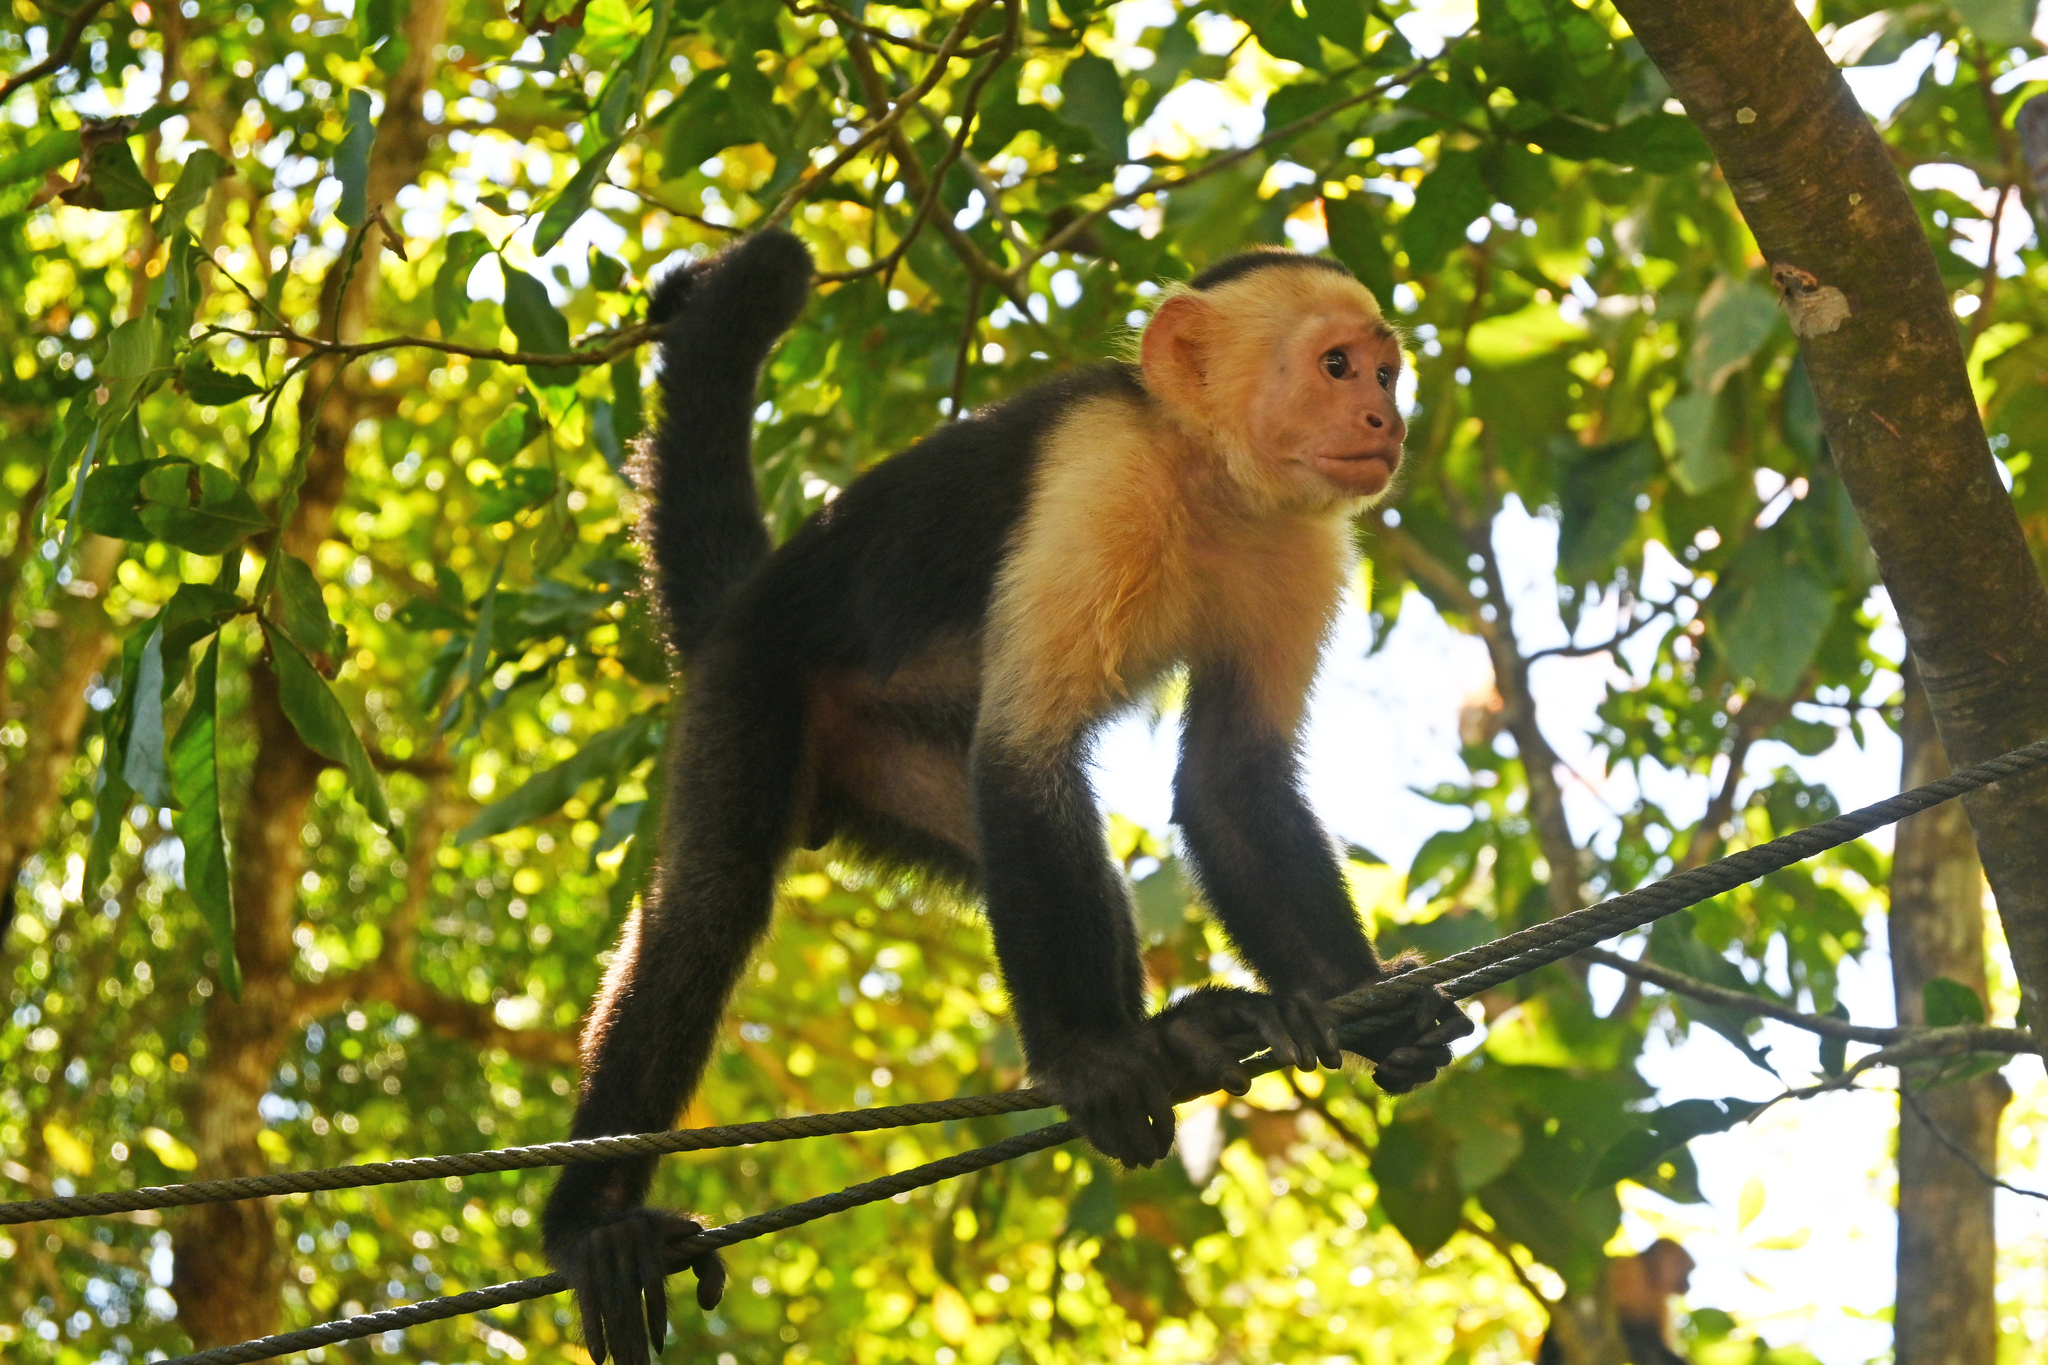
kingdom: Animalia
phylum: Chordata
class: Mammalia
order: Primates
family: Cebidae
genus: Cebus
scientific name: Cebus imitator
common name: Panamanian white-faced capuchin
